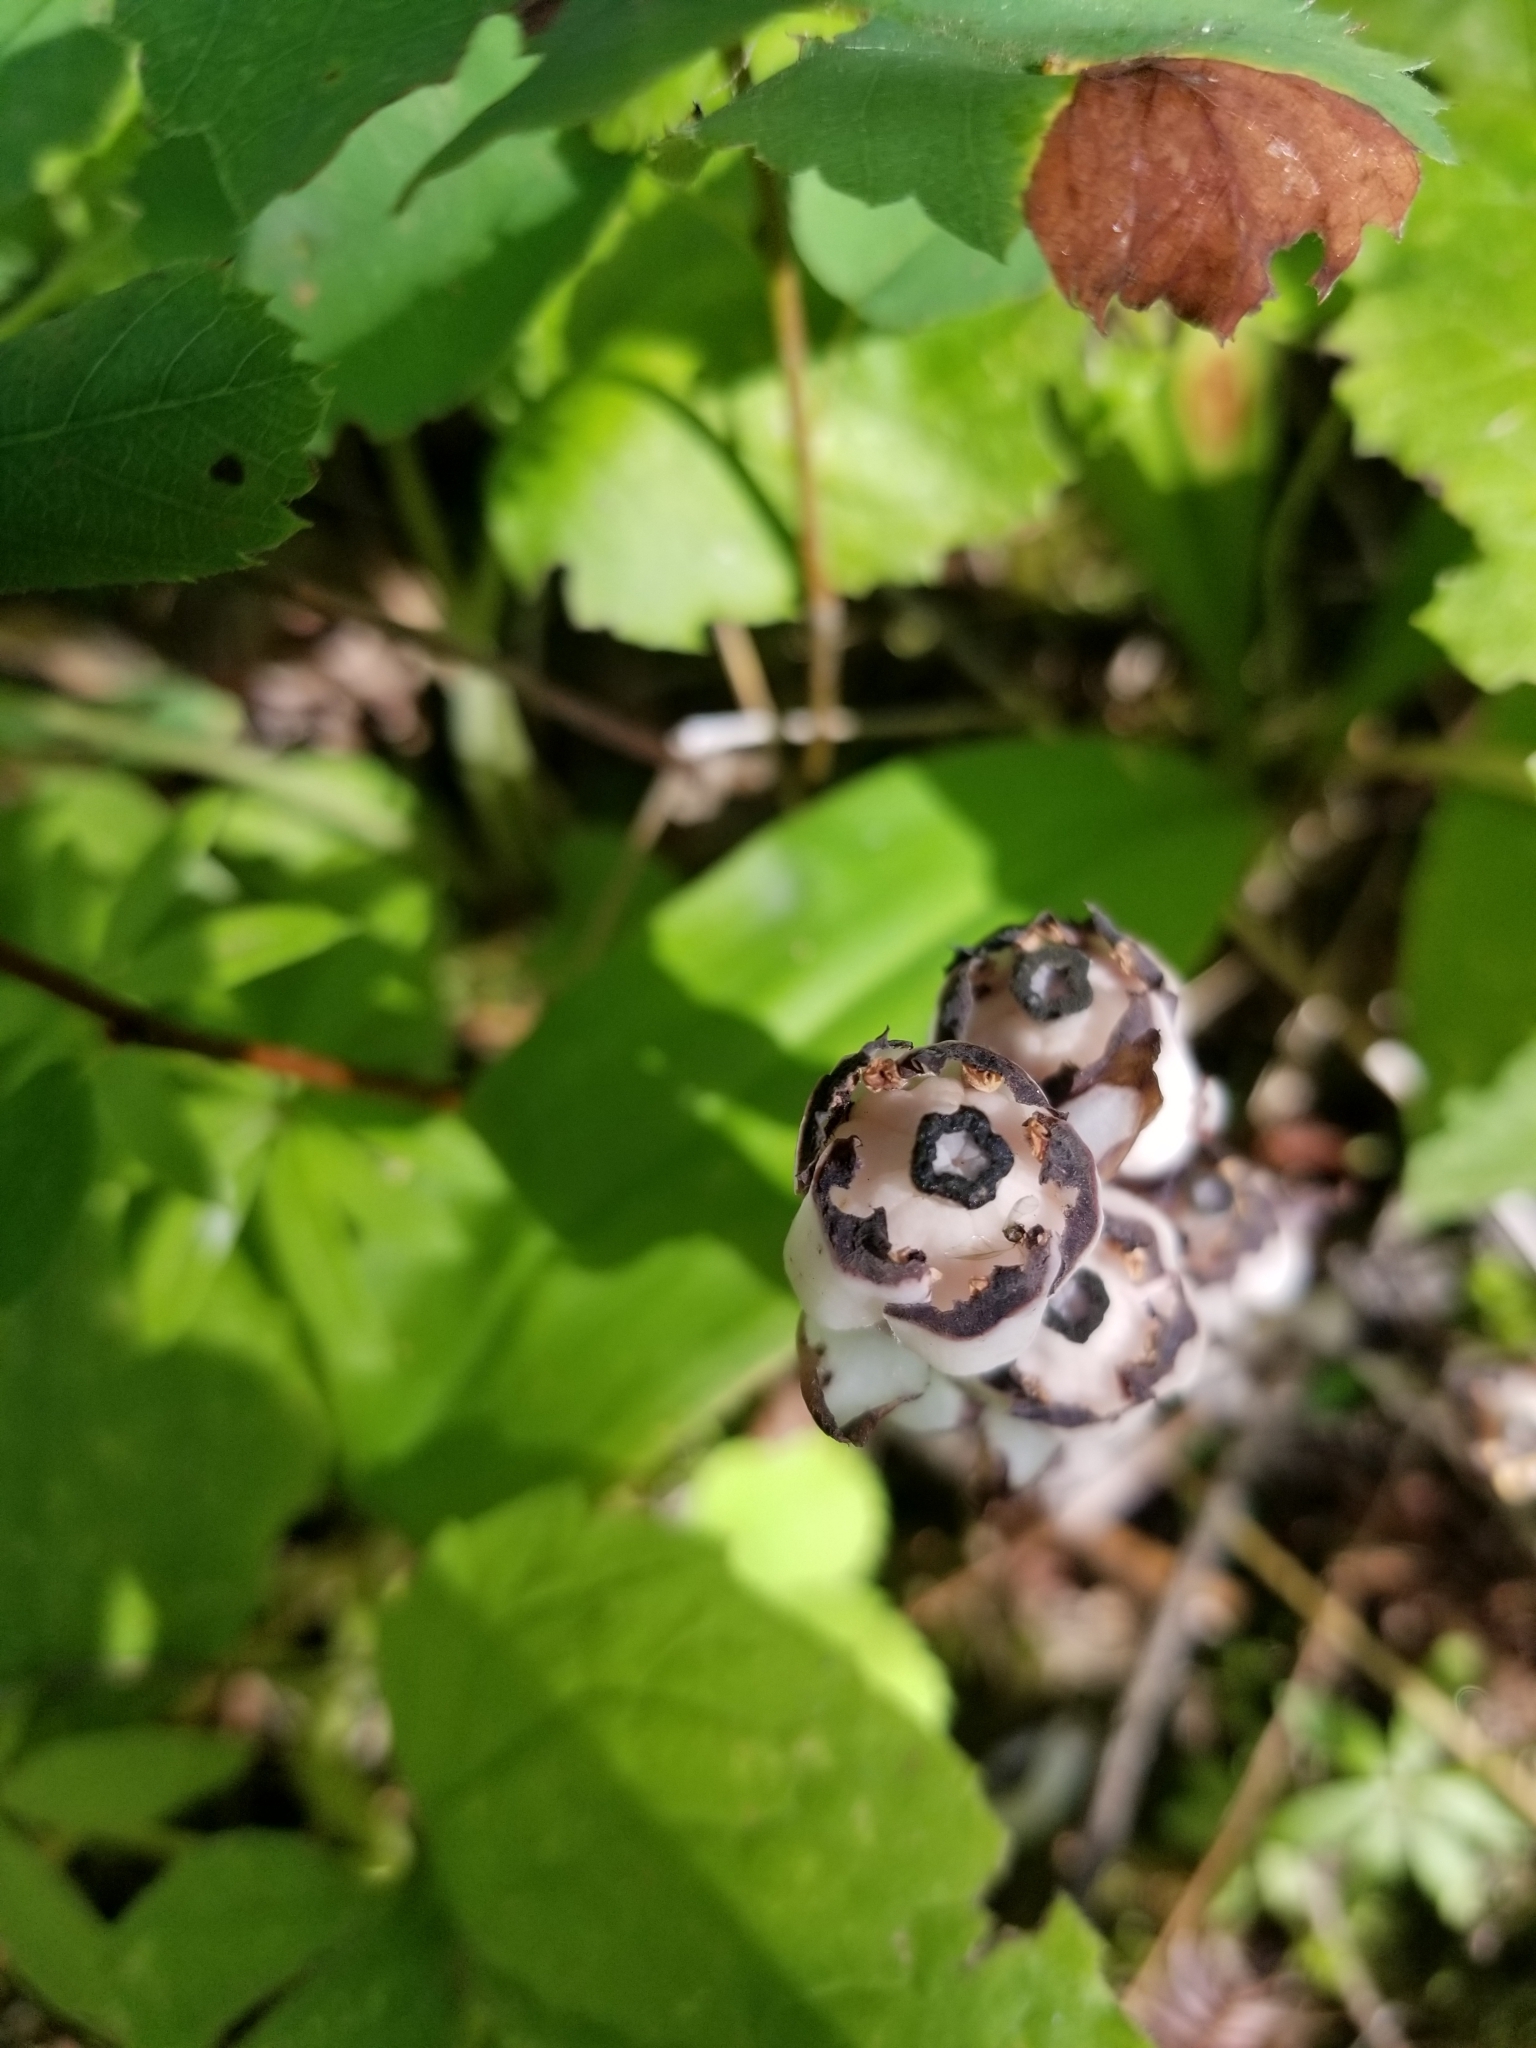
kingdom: Plantae
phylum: Tracheophyta
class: Magnoliopsida
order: Ericales
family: Ericaceae
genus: Monotropa
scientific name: Monotropa uniflora
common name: Convulsion root
